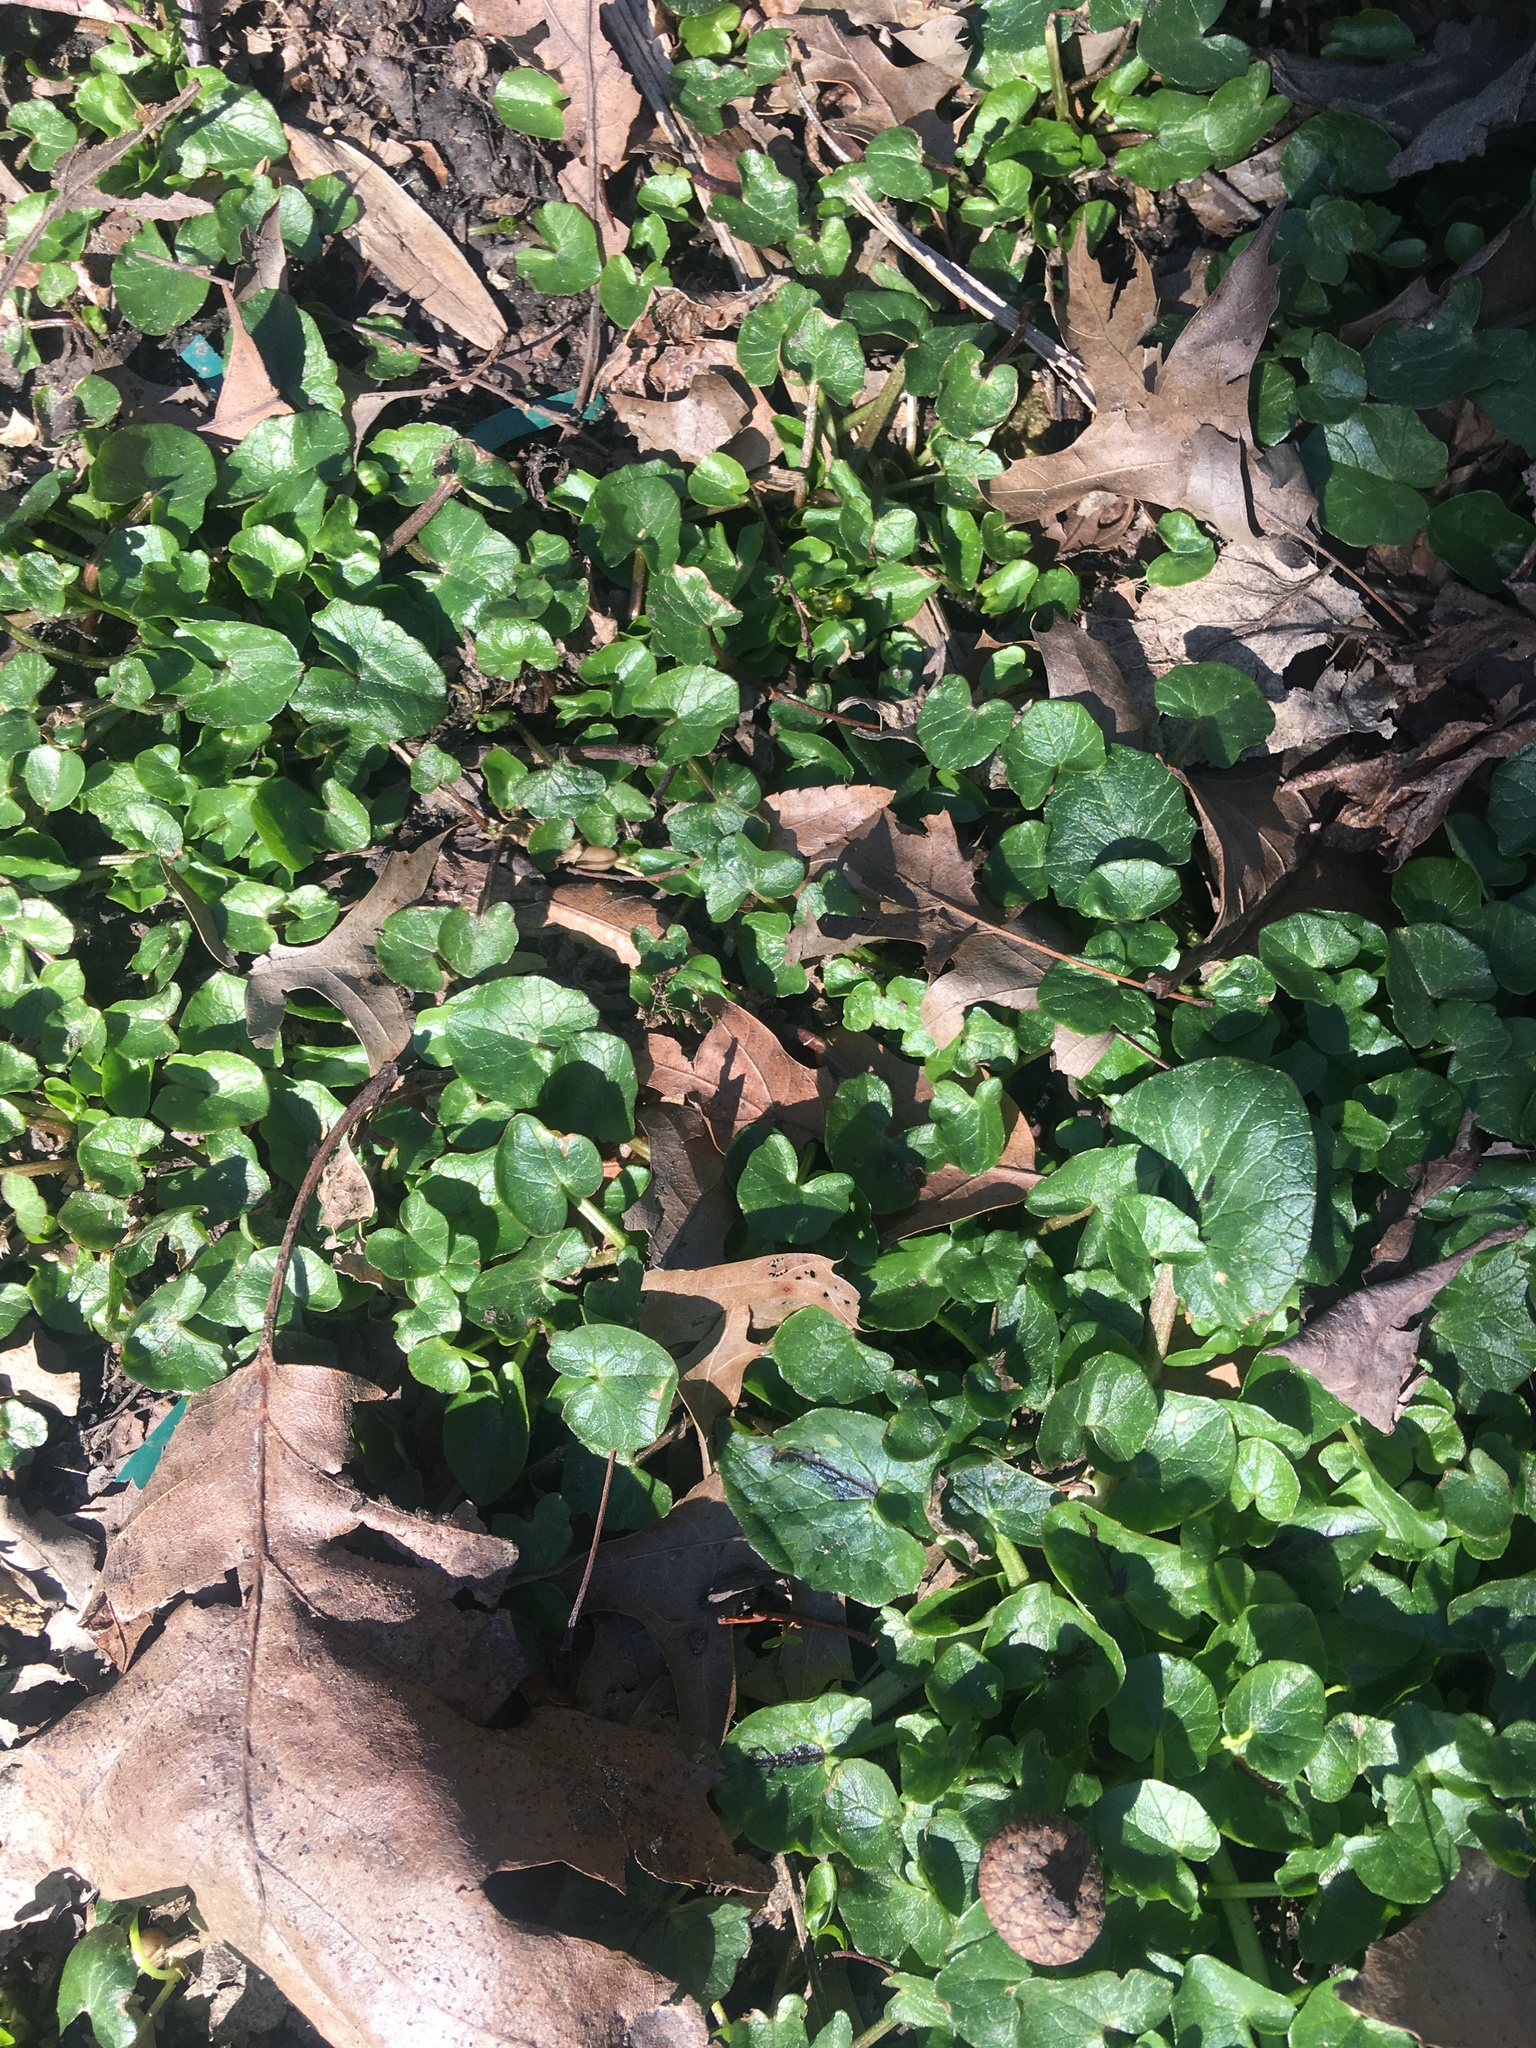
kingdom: Plantae
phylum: Tracheophyta
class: Magnoliopsida
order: Ranunculales
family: Ranunculaceae
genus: Ficaria
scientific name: Ficaria verna
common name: Lesser celandine
